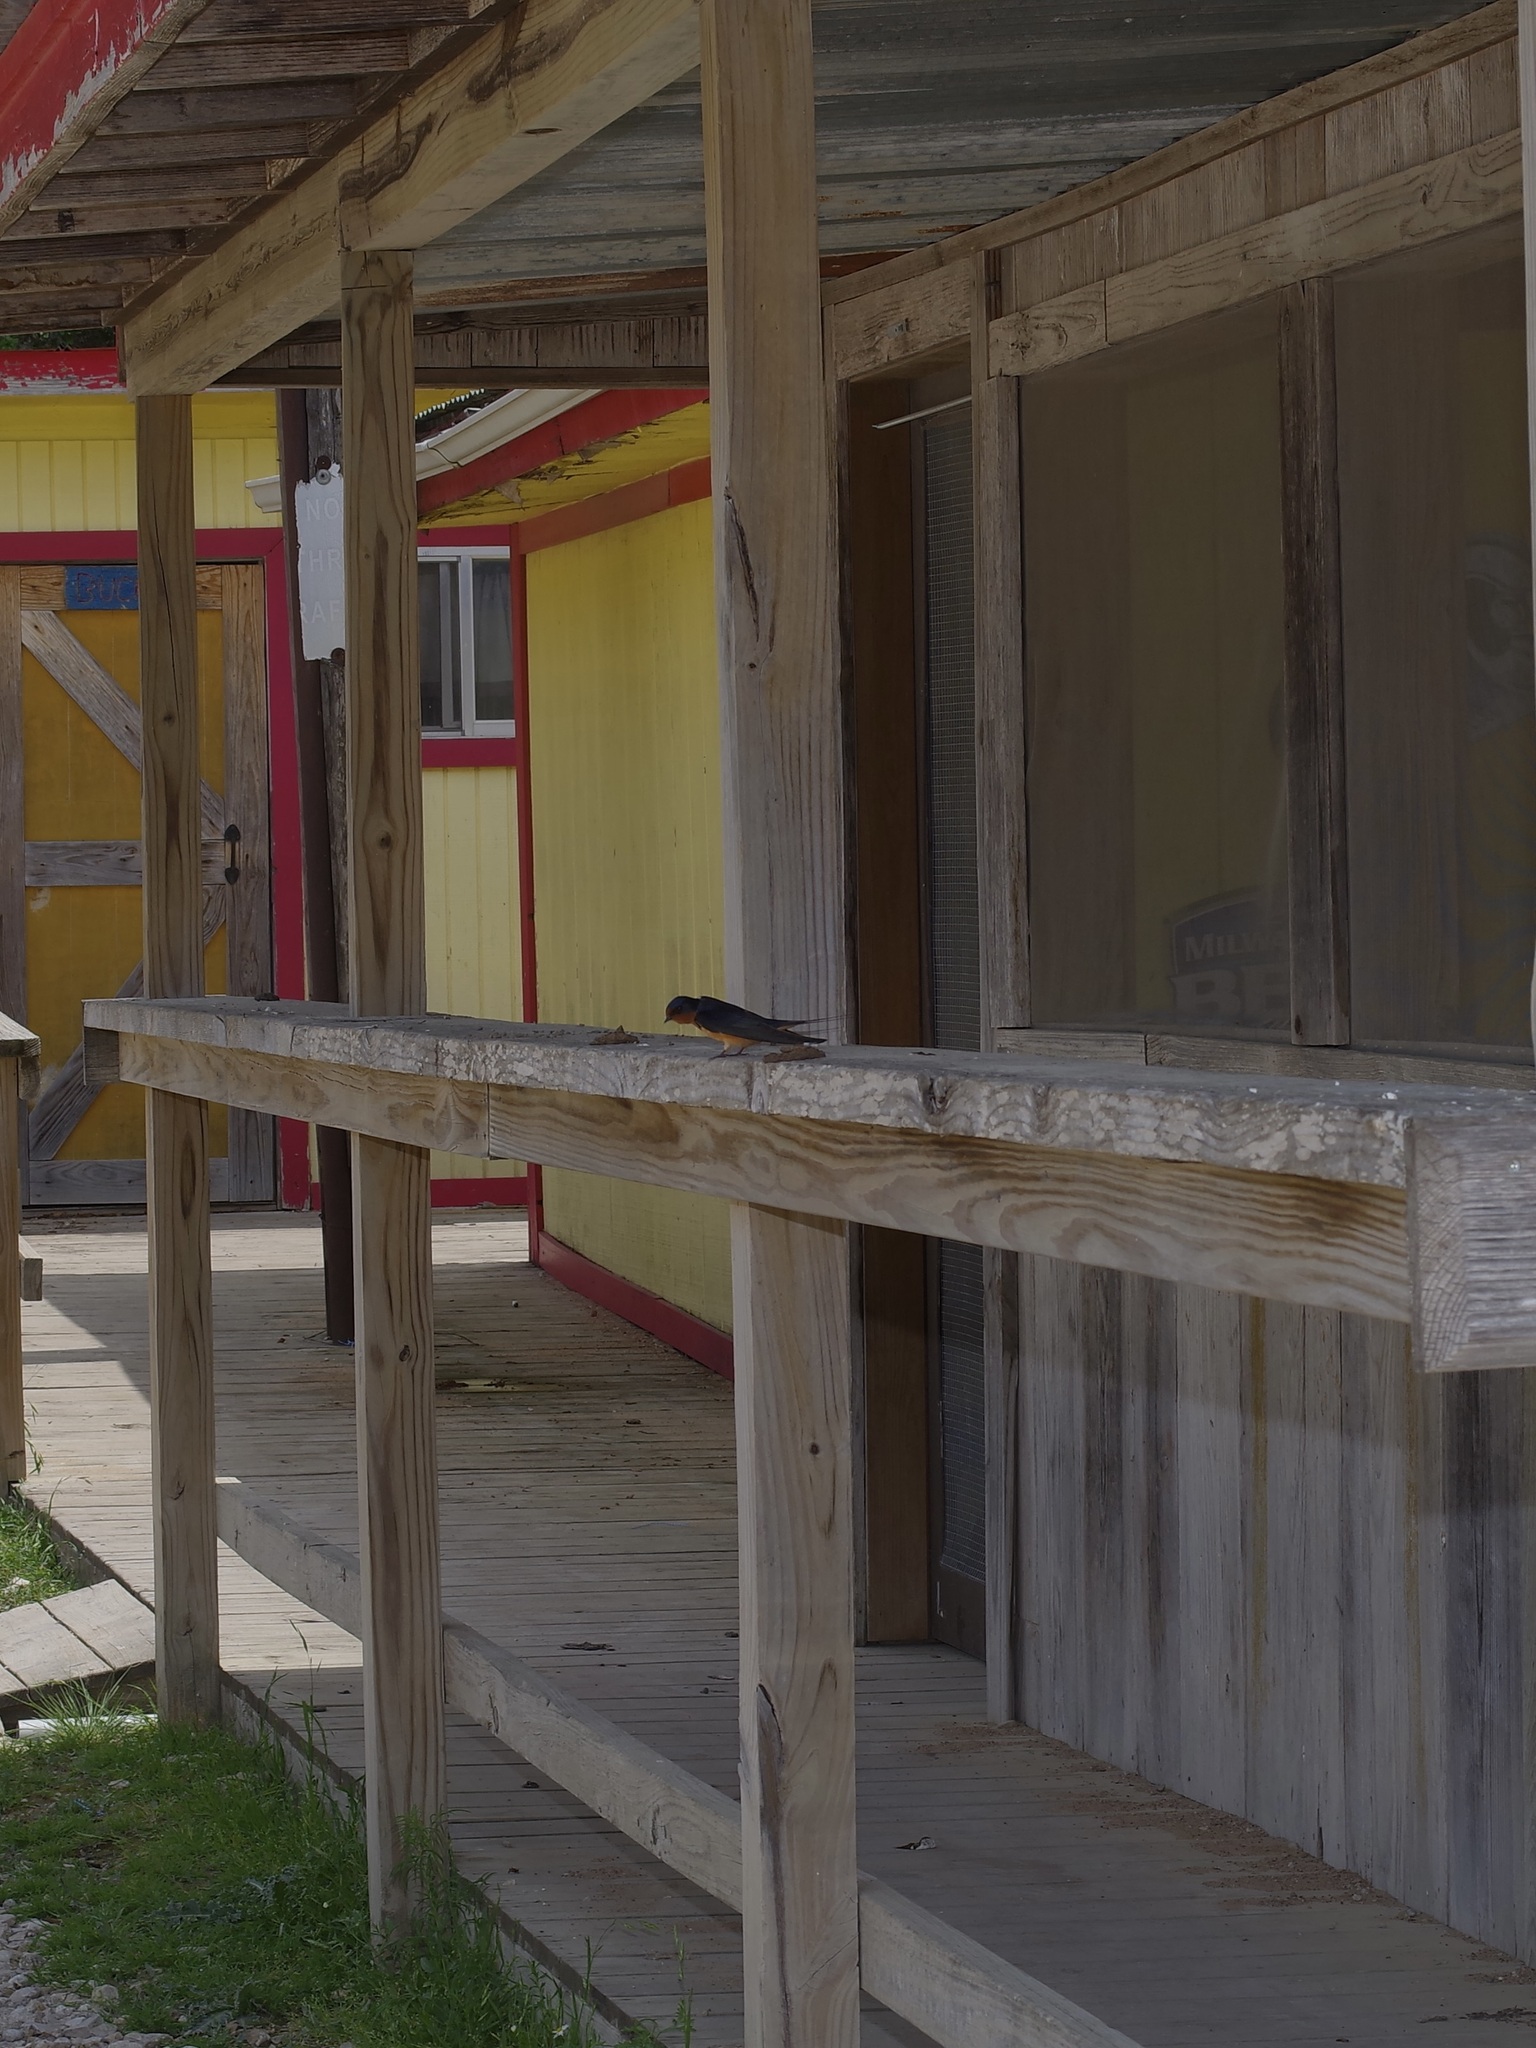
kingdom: Animalia
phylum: Chordata
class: Aves
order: Passeriformes
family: Hirundinidae
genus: Hirundo
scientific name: Hirundo rustica
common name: Barn swallow
